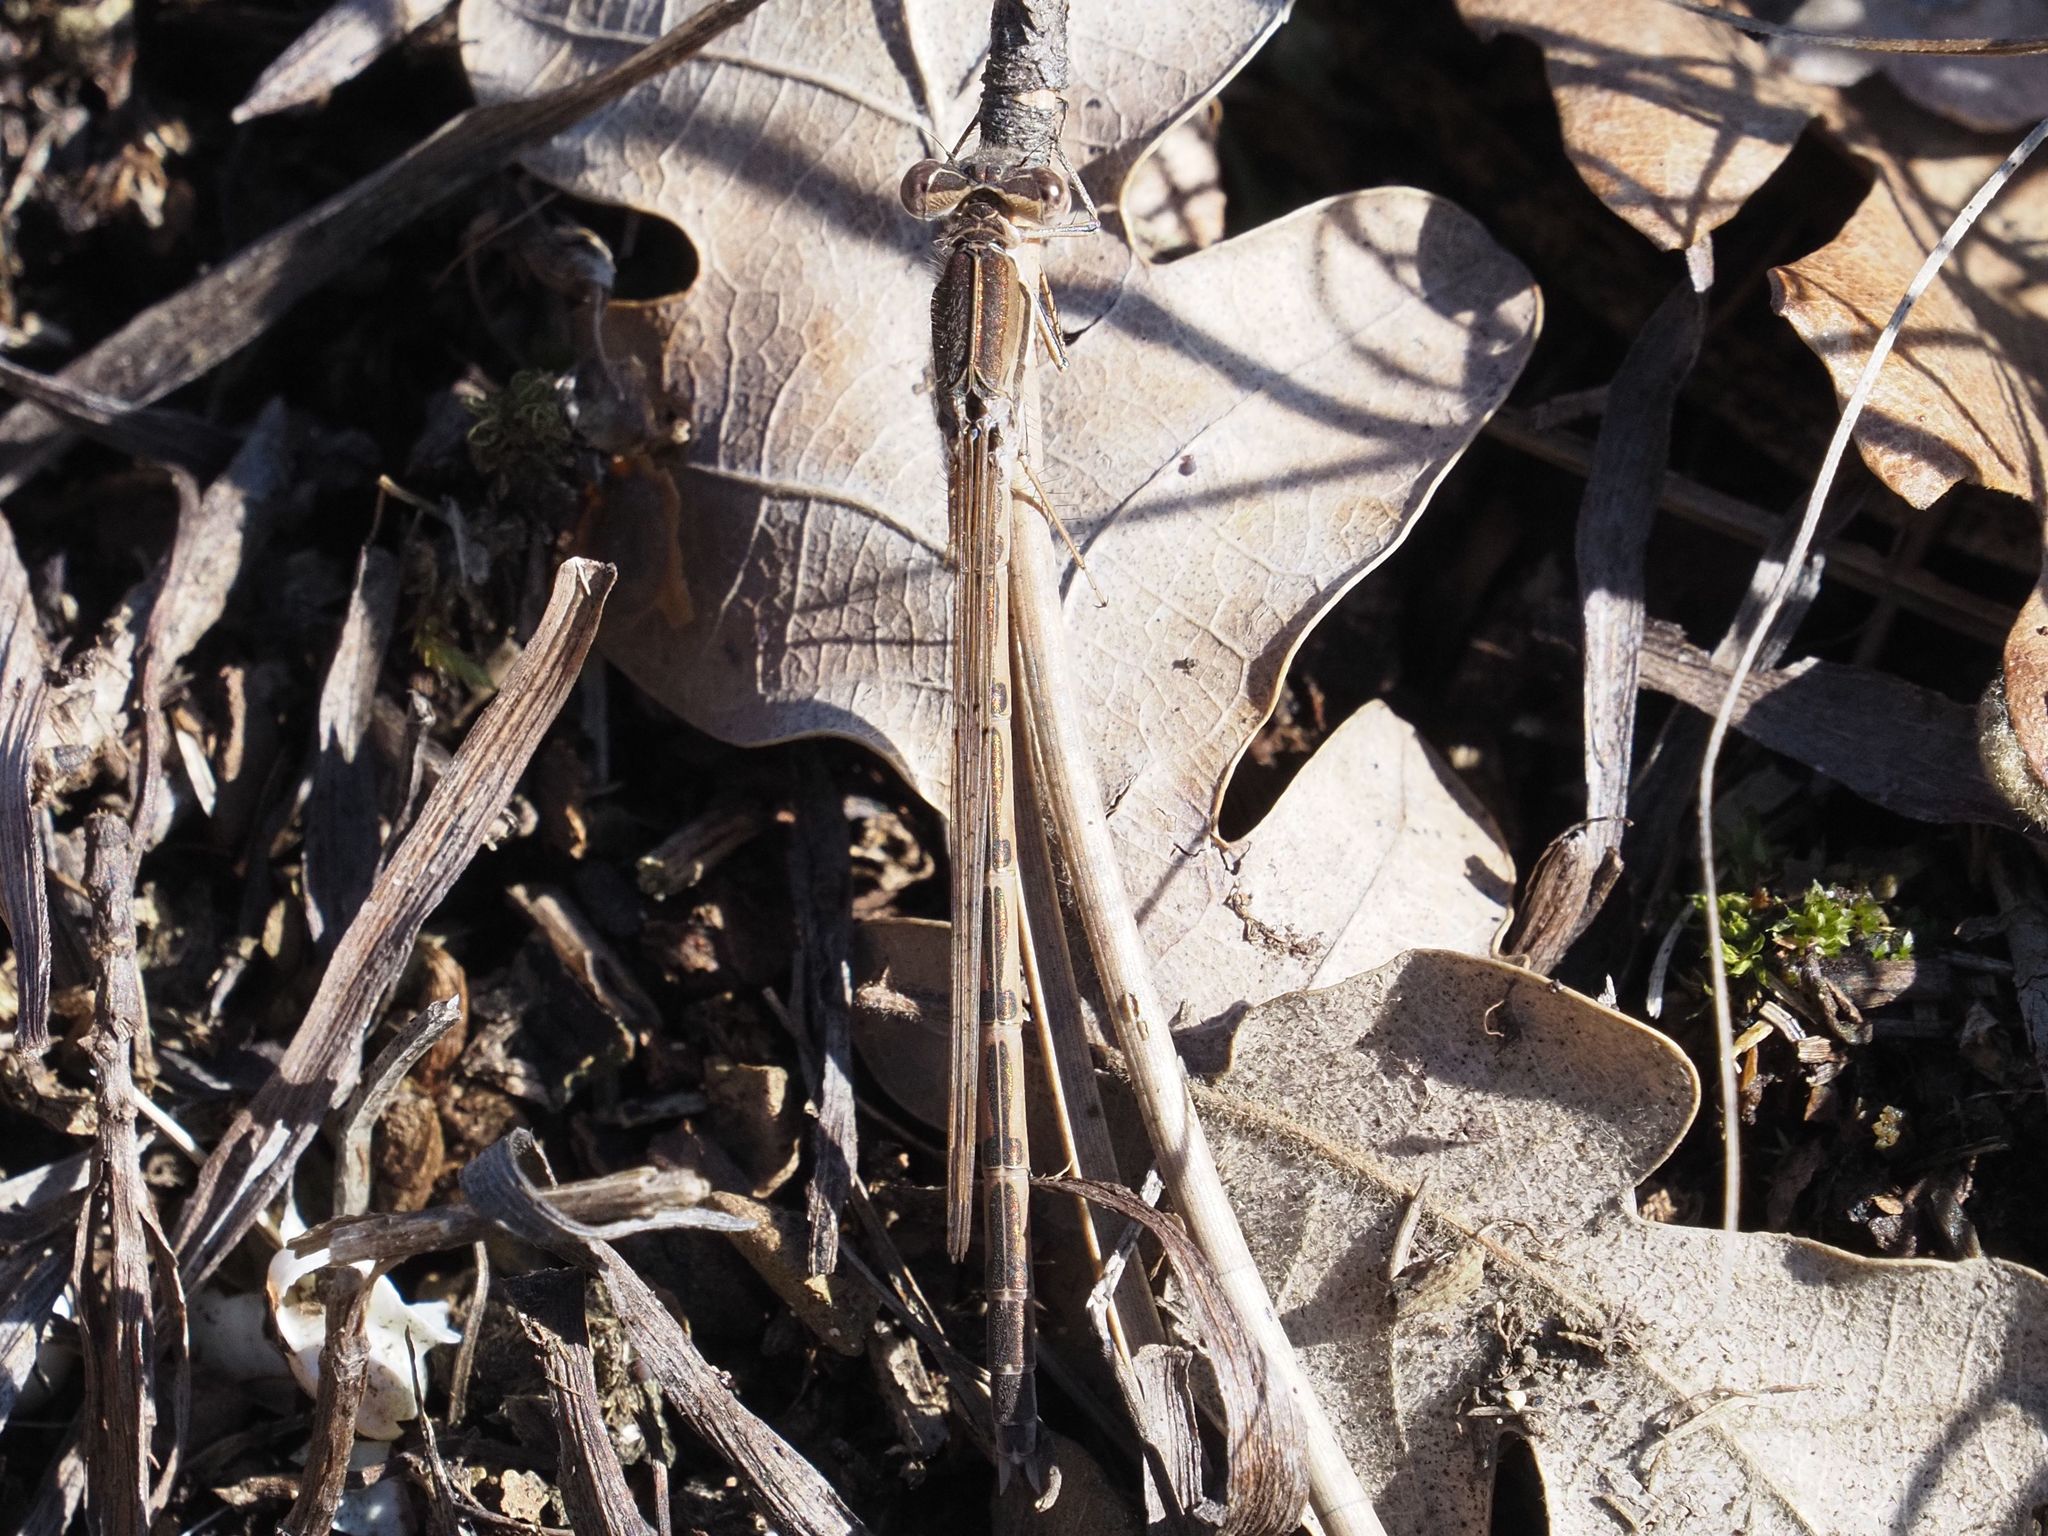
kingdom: Animalia
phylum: Arthropoda
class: Insecta
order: Odonata
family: Lestidae
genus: Sympecma
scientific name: Sympecma fusca
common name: Common winter damsel
